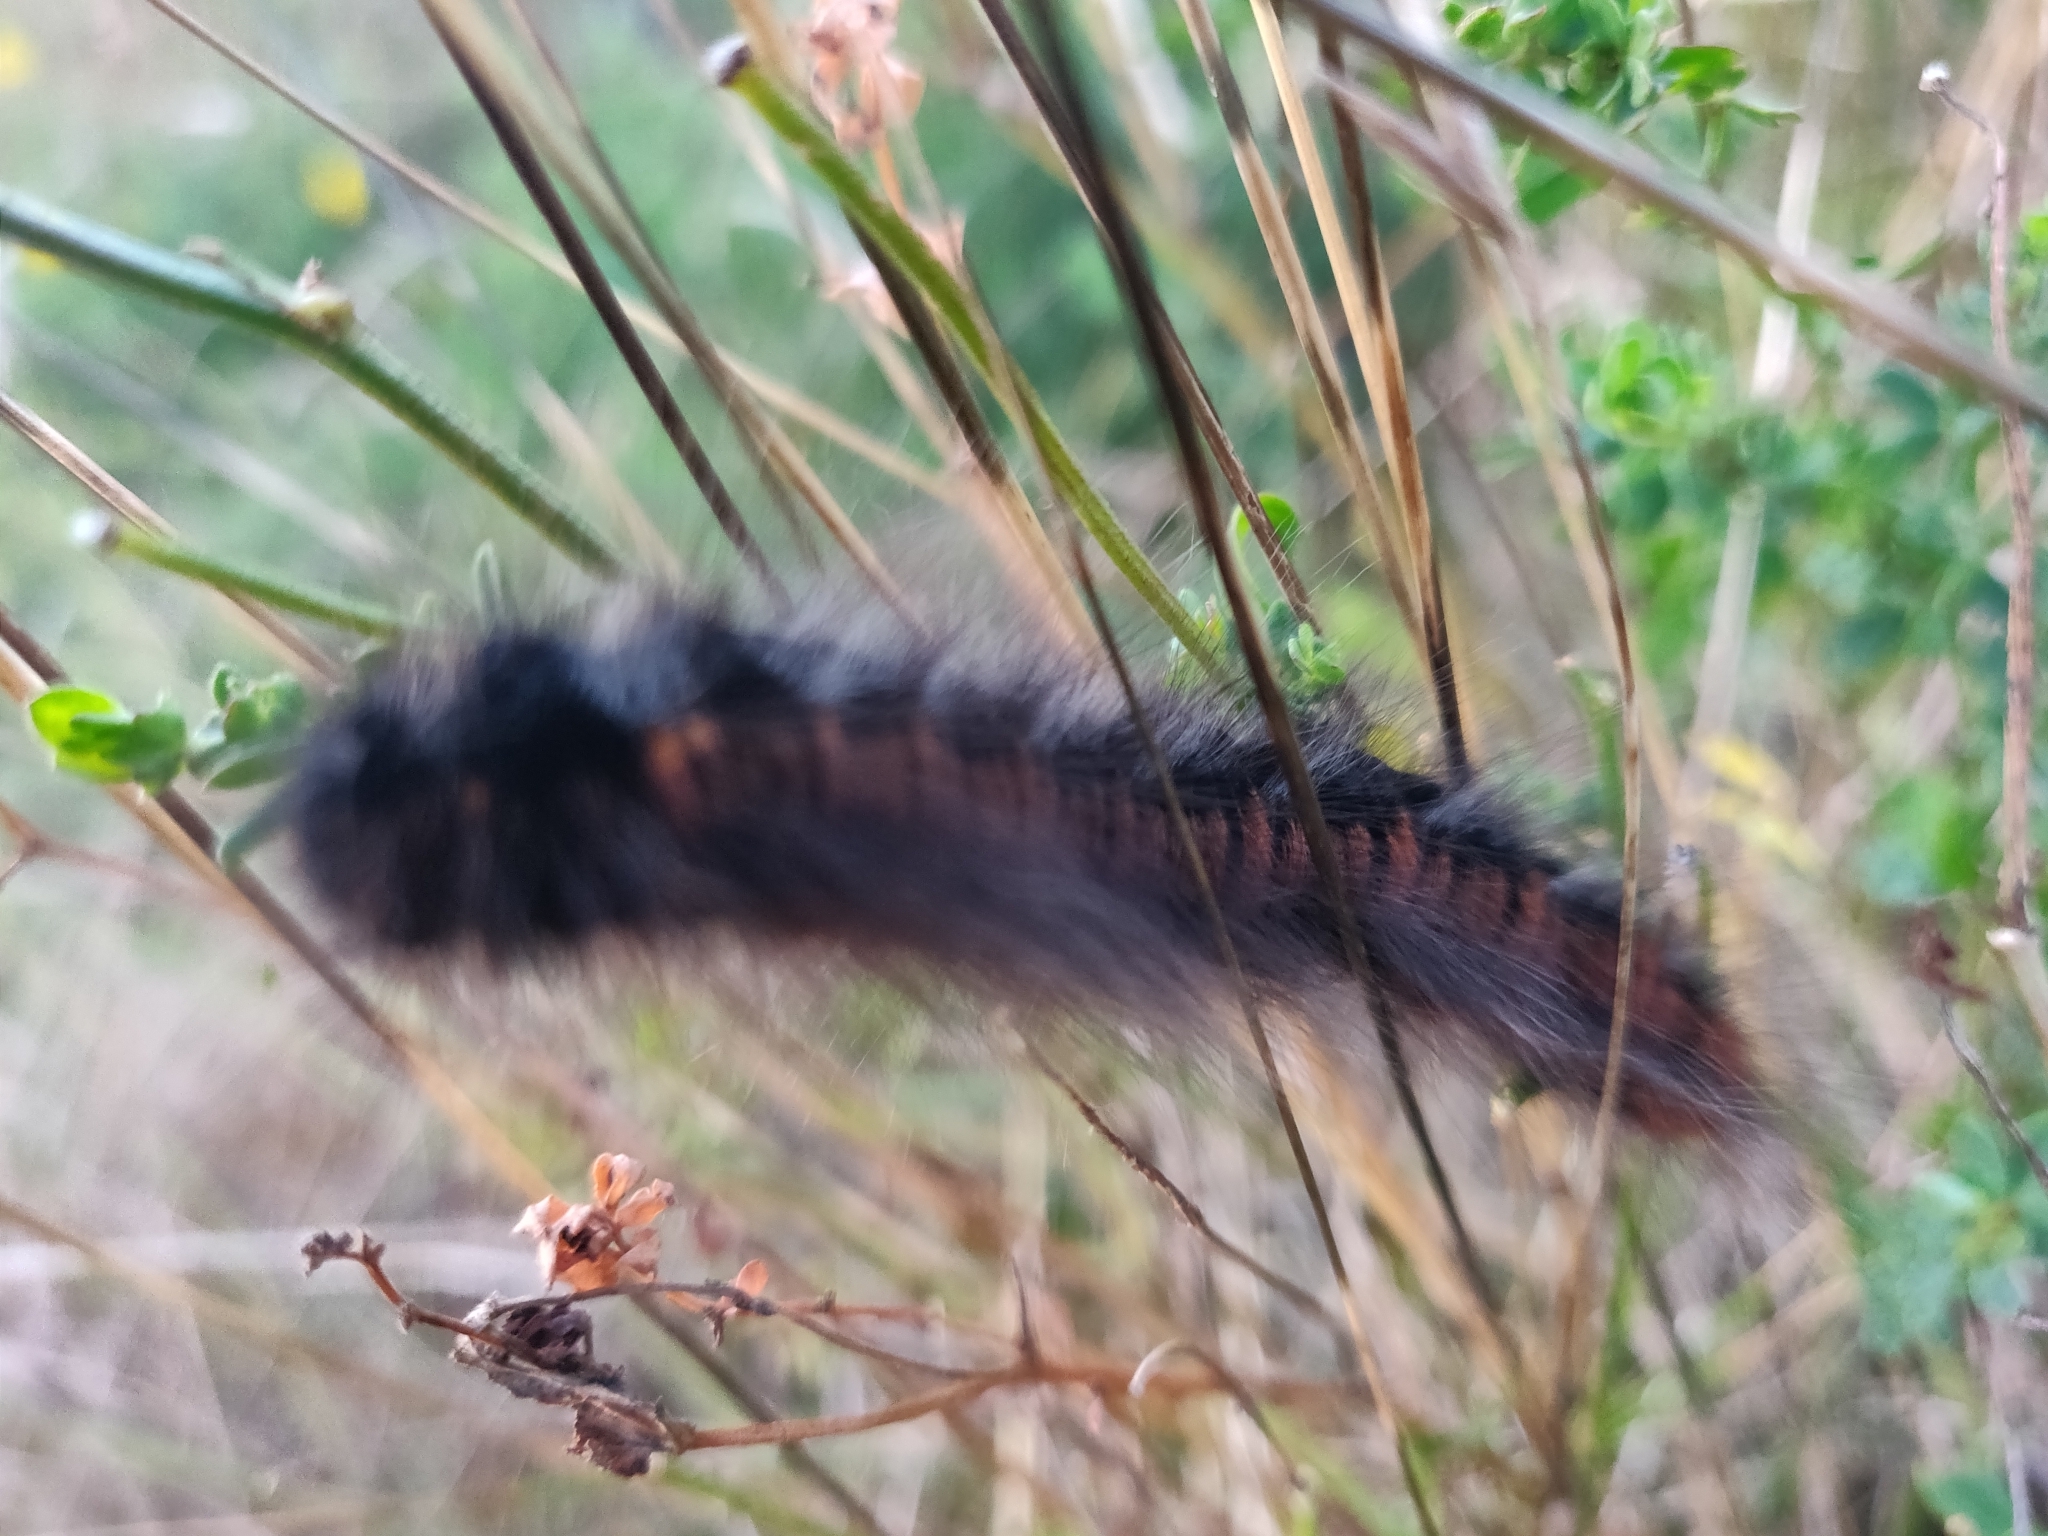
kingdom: Animalia
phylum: Arthropoda
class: Insecta
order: Lepidoptera
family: Lasiocampidae
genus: Macrothylacia
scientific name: Macrothylacia rubi
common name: Fox moth
